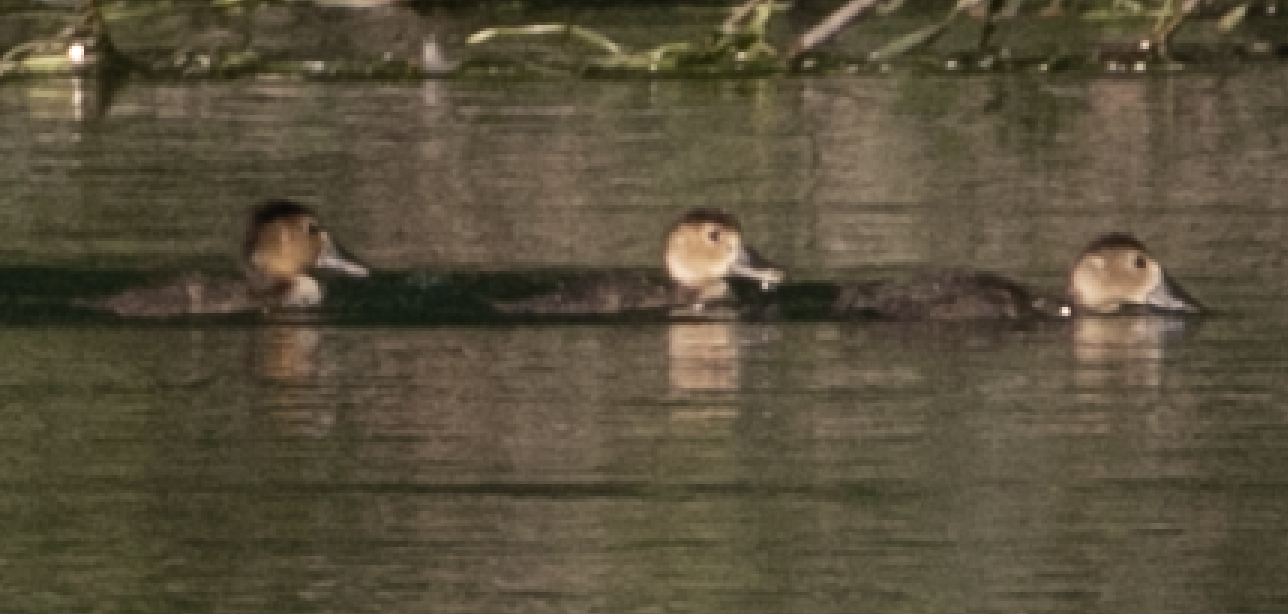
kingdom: Animalia
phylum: Chordata
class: Aves
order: Anseriformes
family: Anatidae
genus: Aythya
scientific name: Aythya ferina
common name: Common pochard
